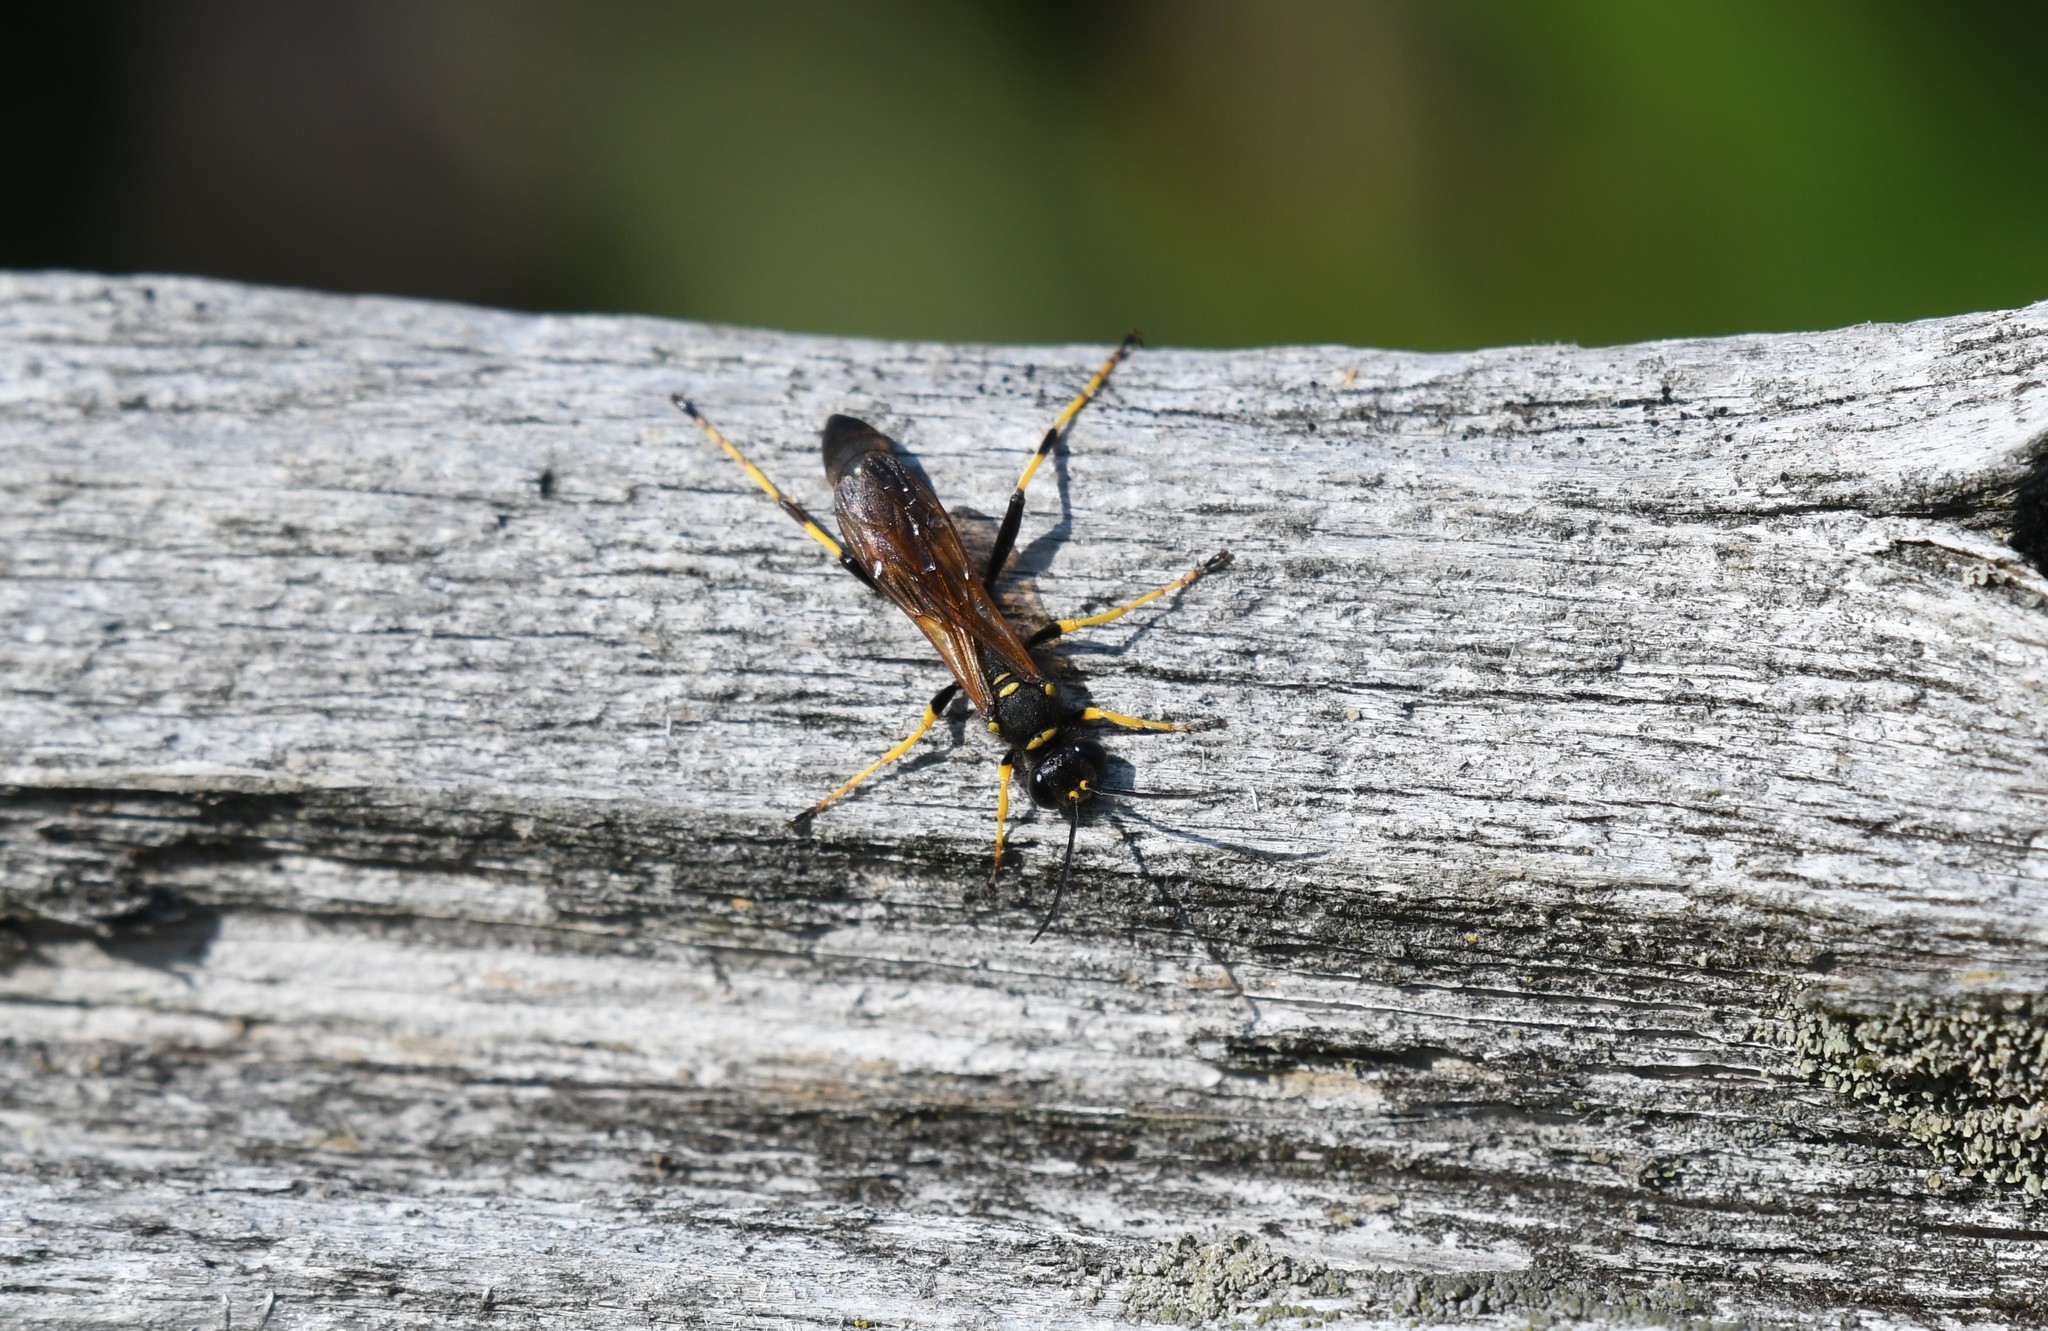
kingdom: Animalia
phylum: Arthropoda
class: Insecta
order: Hymenoptera
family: Sphecidae
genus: Sceliphron
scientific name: Sceliphron caementarium
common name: Mud dauber
